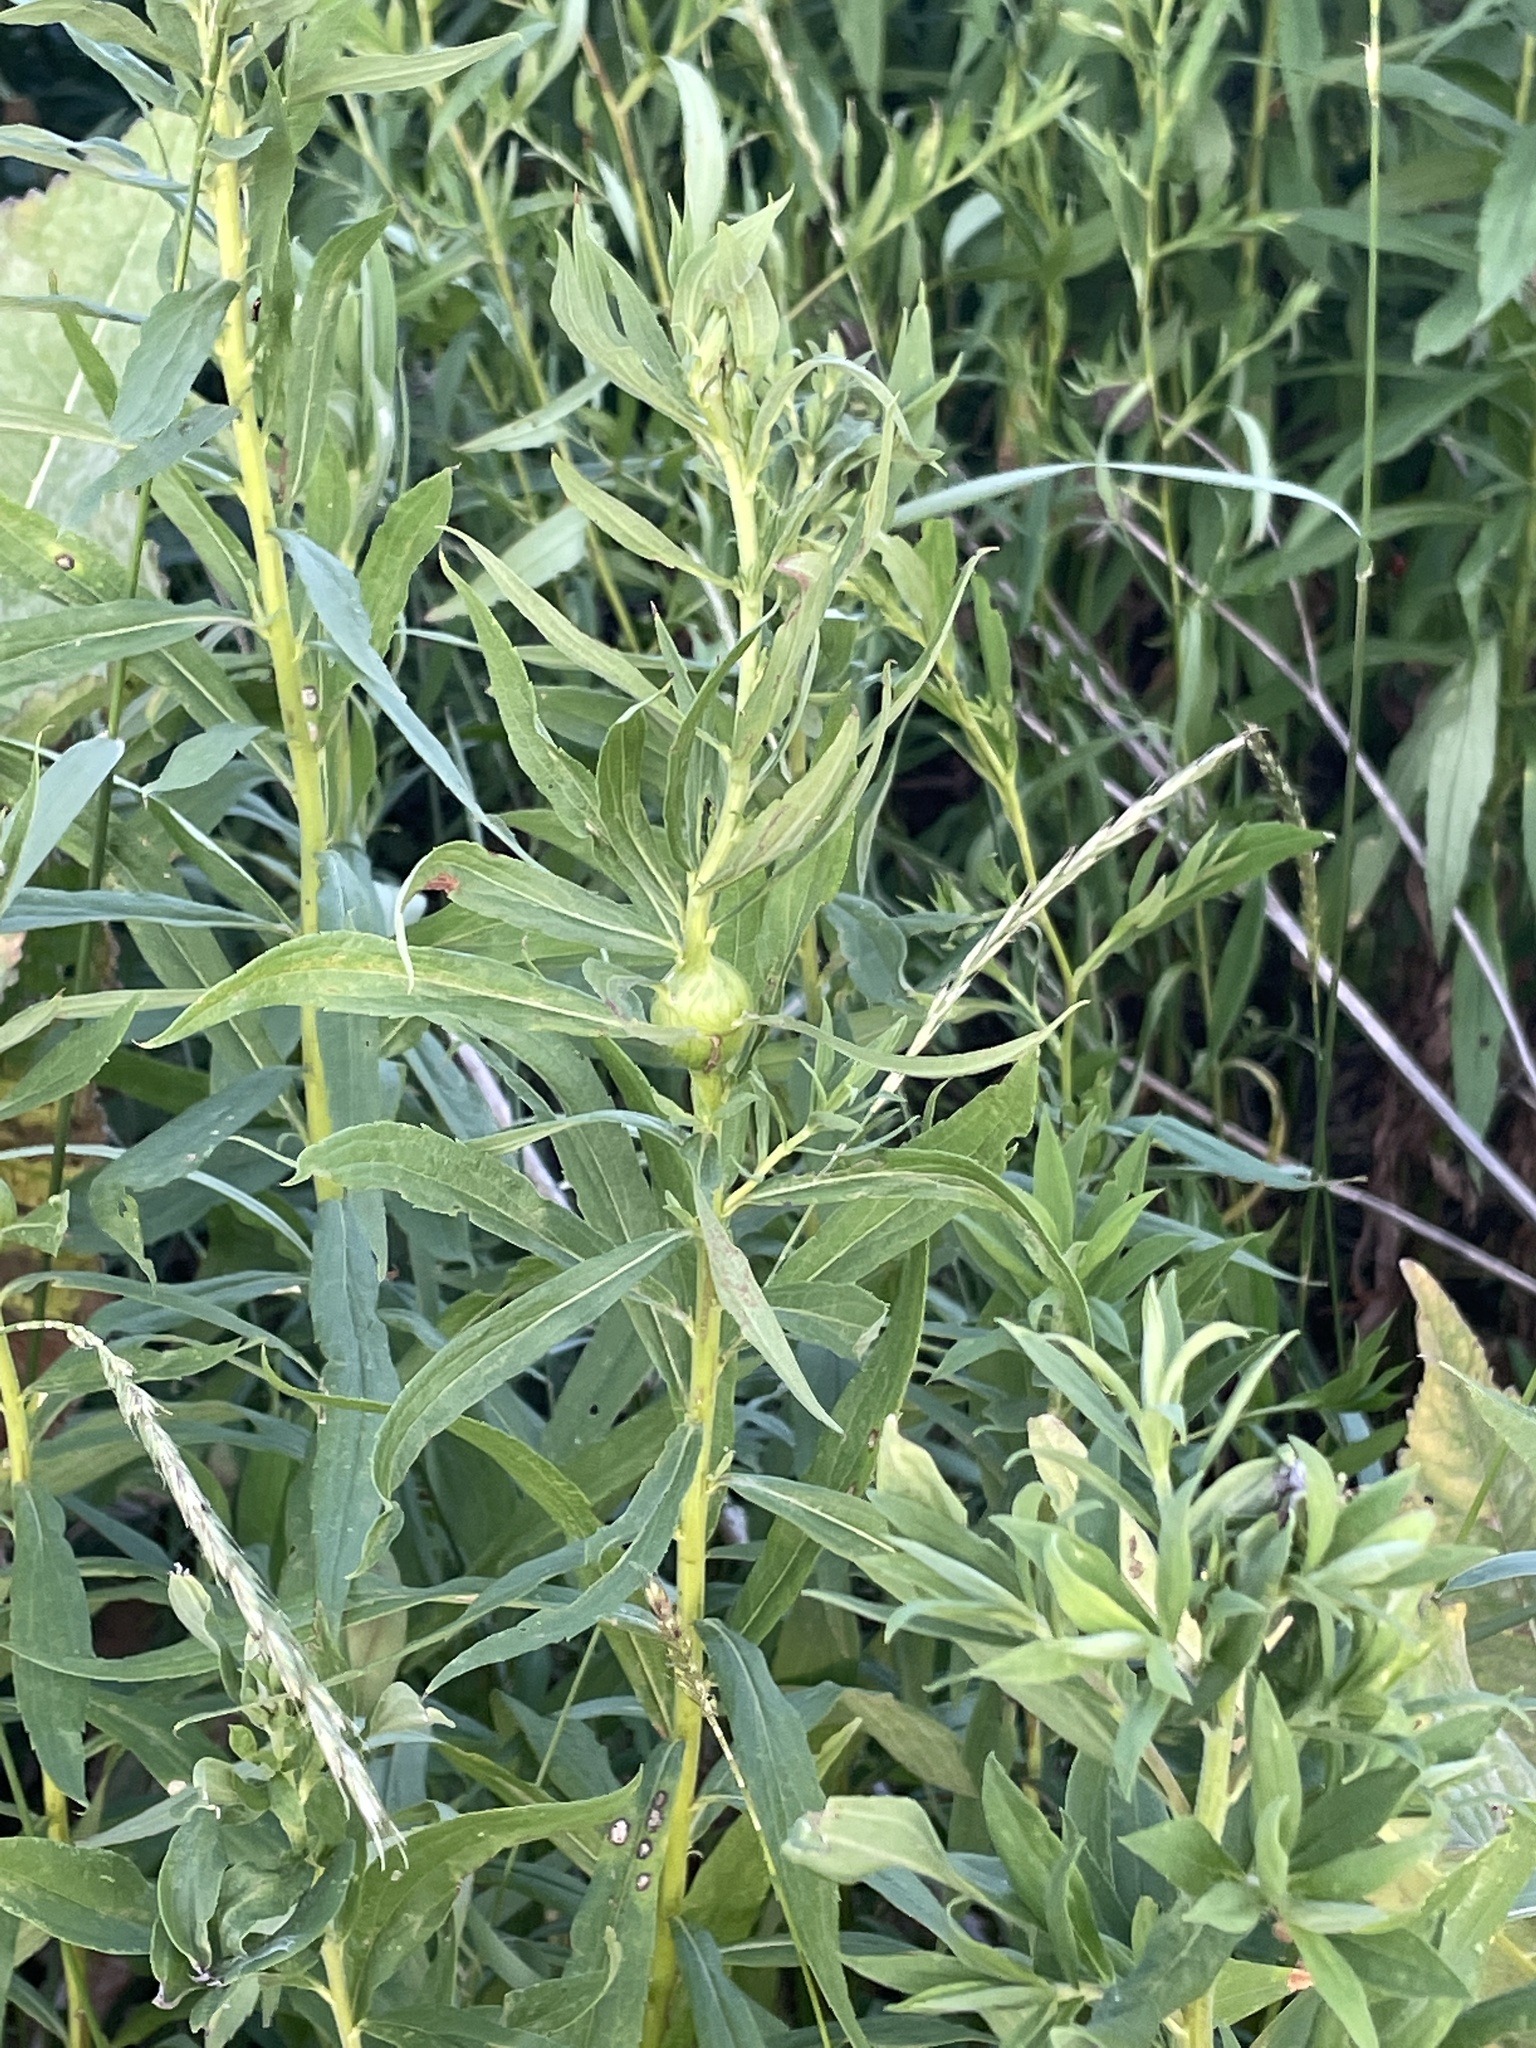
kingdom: Animalia
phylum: Arthropoda
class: Insecta
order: Diptera
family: Tephritidae
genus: Eurosta
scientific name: Eurosta solidaginis
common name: Goldenrod gall fly
